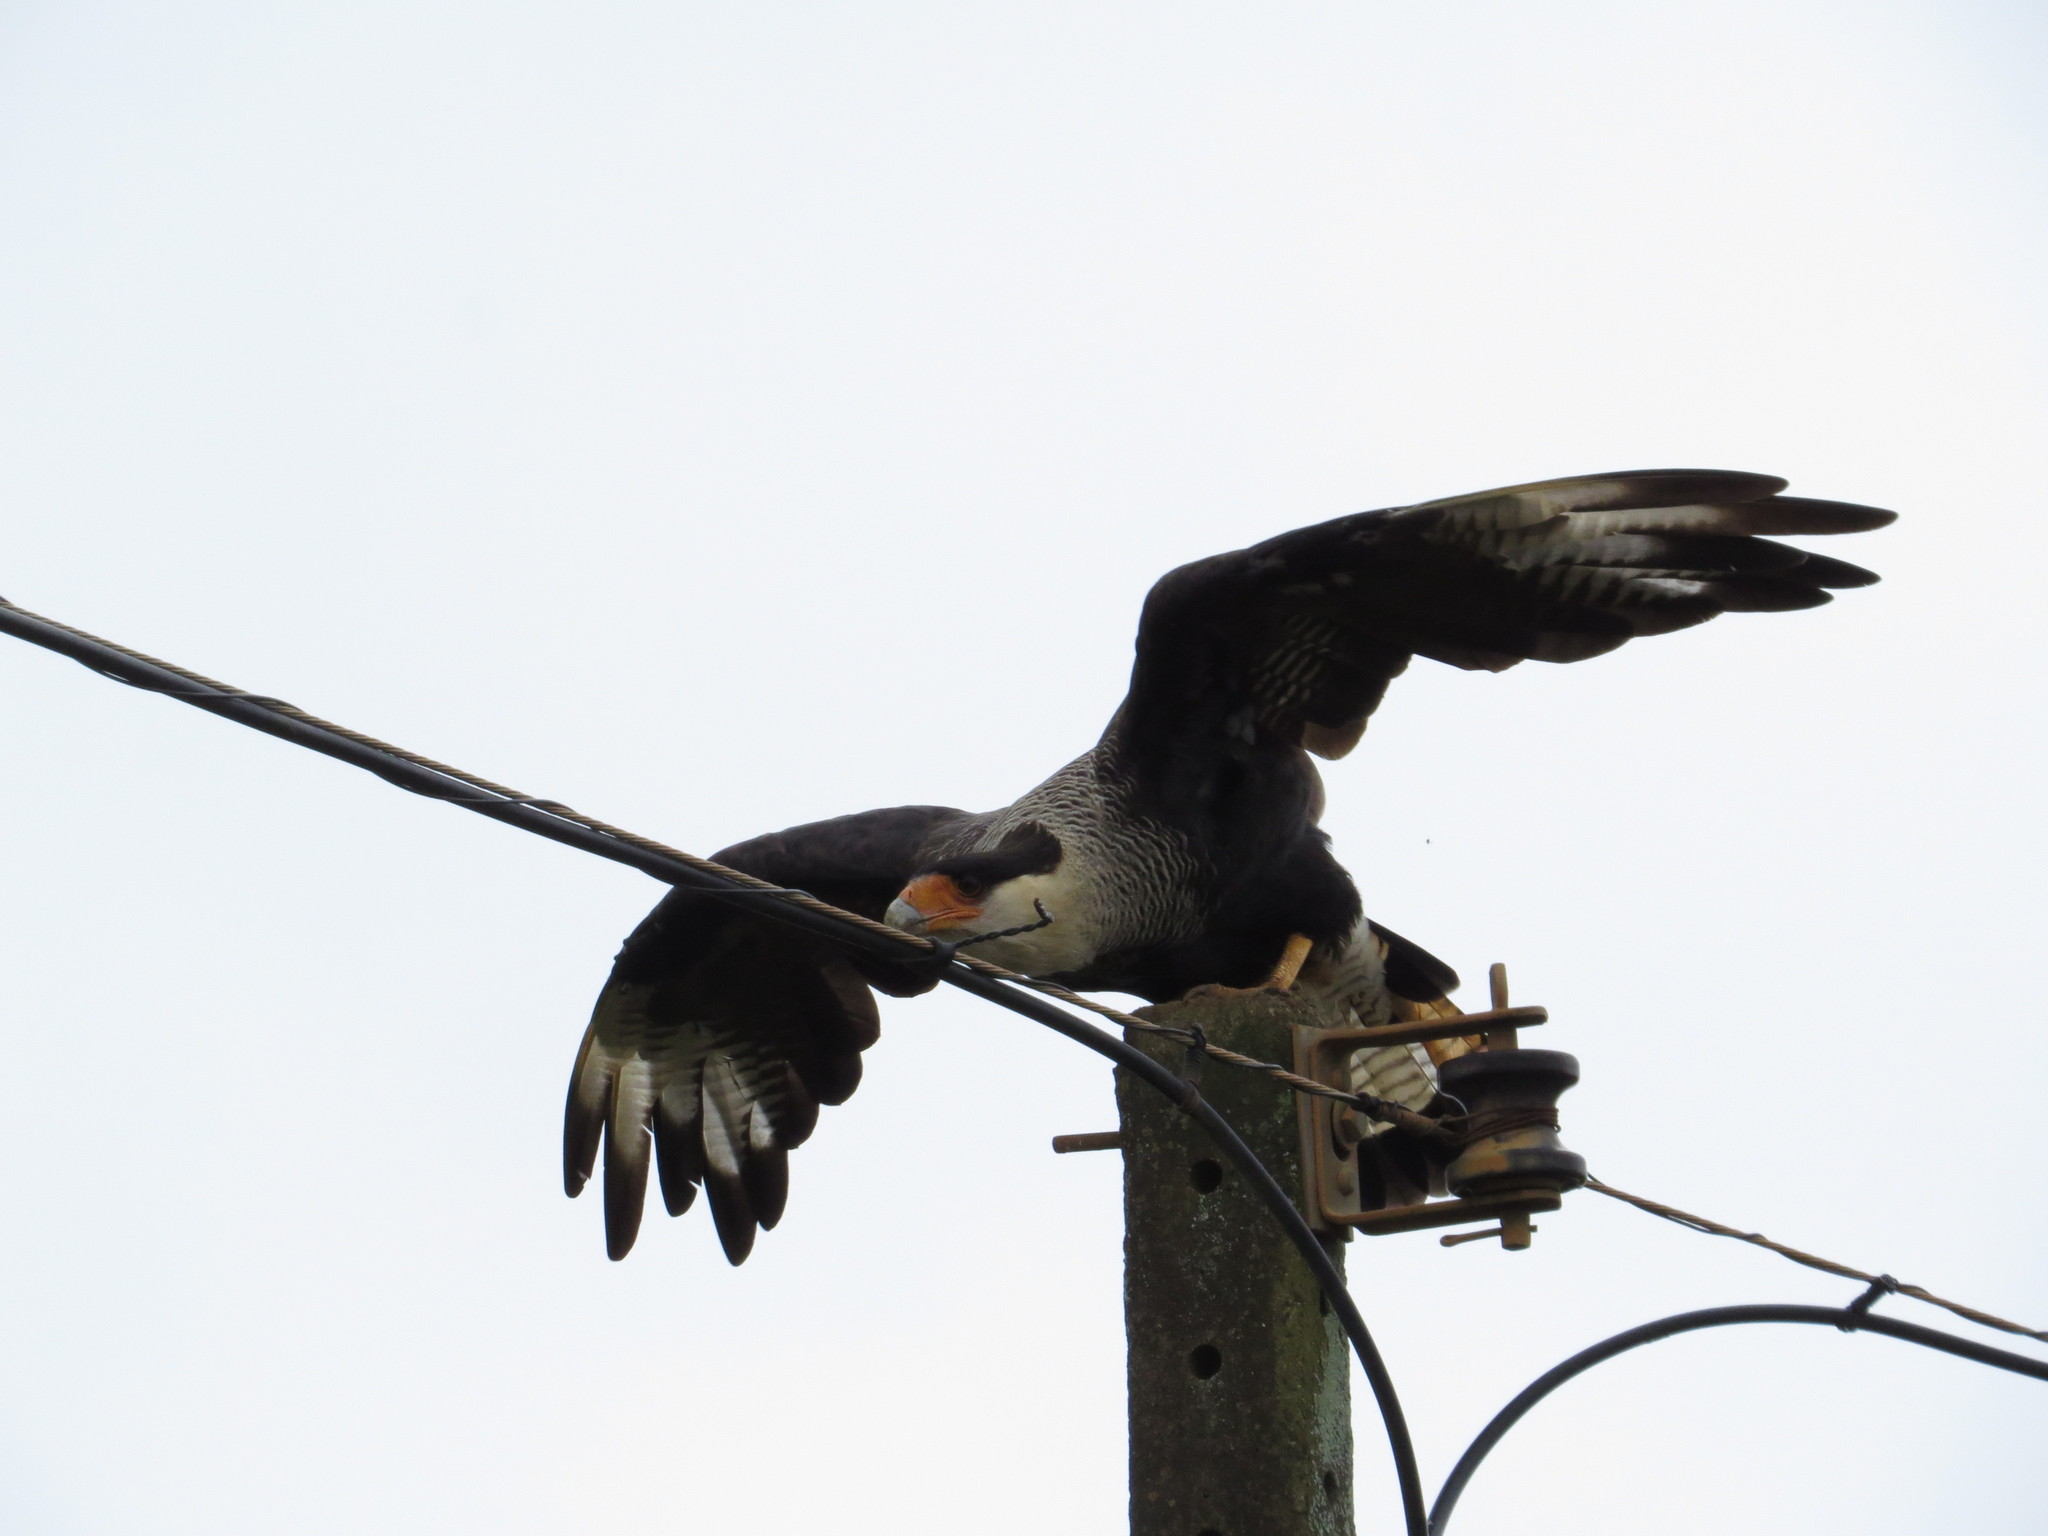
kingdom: Animalia
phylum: Chordata
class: Aves
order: Falconiformes
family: Falconidae
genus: Caracara
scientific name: Caracara plancus
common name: Southern caracara
